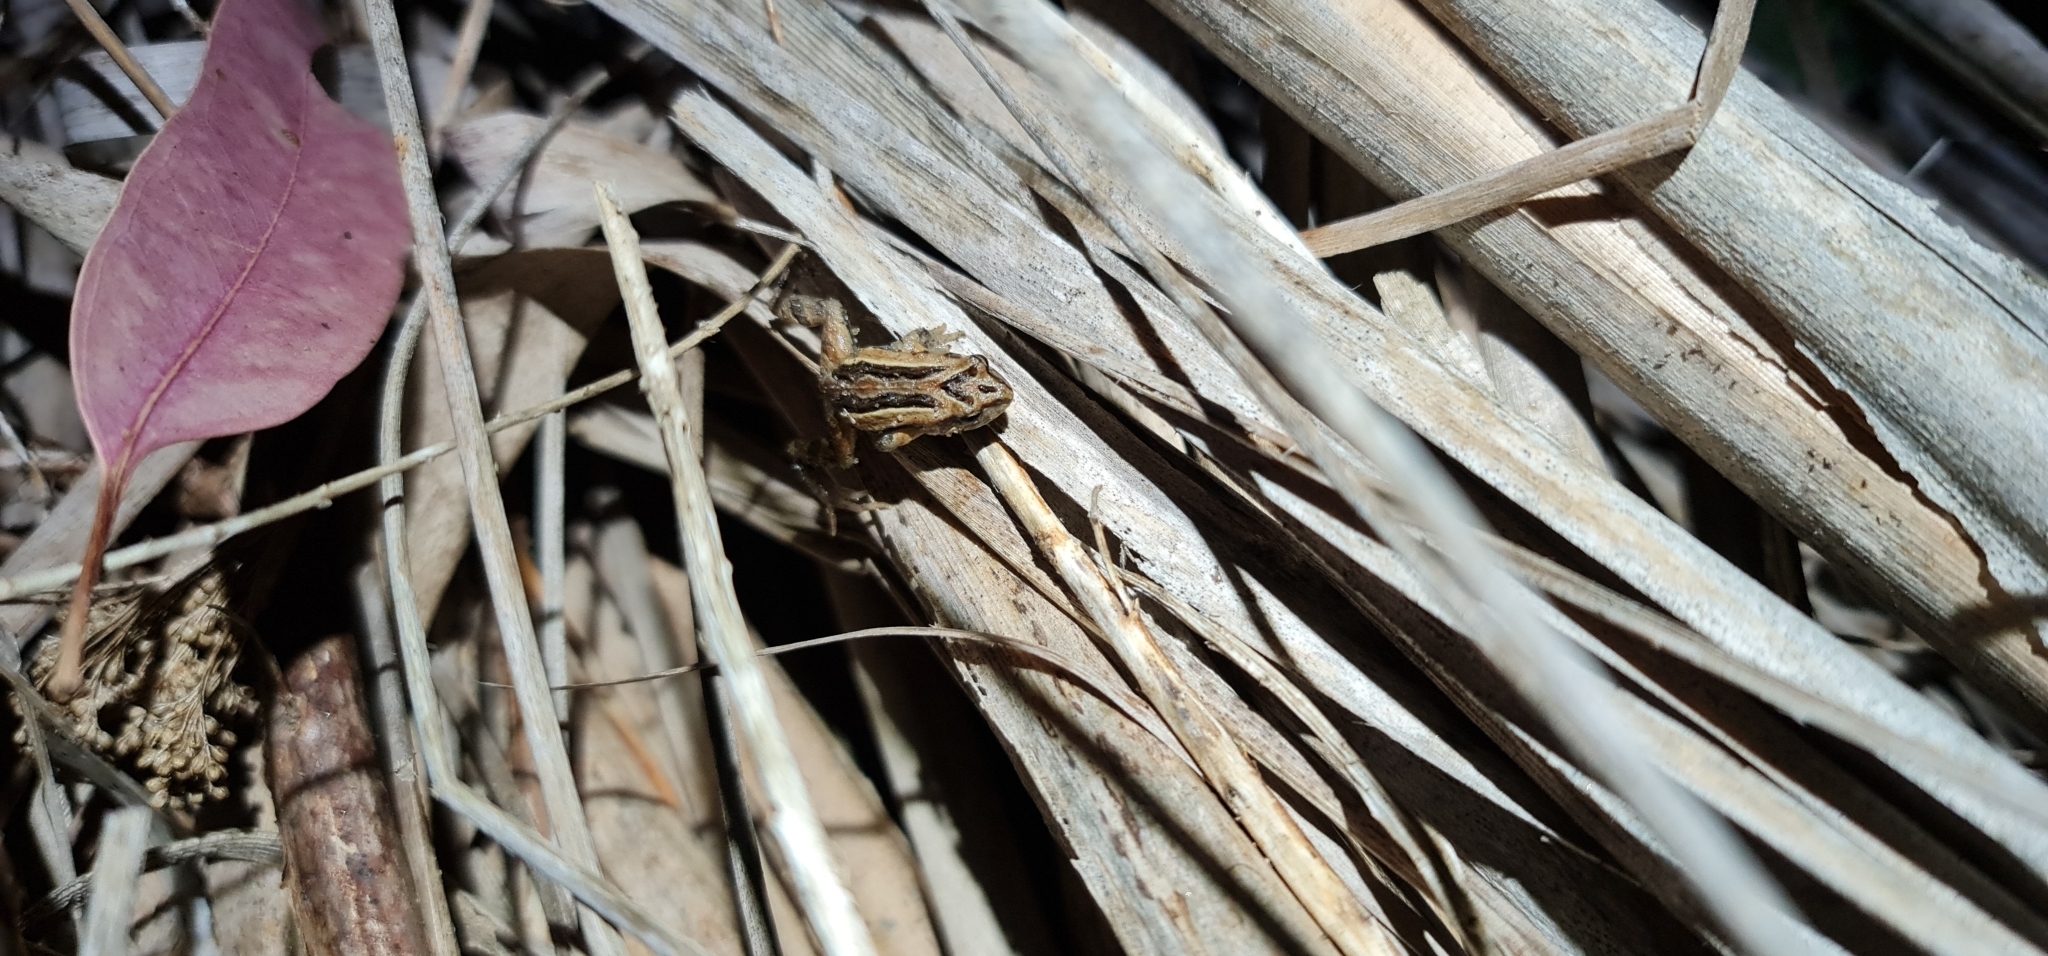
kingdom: Animalia
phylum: Chordata
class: Amphibia
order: Anura
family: Myobatrachidae
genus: Crinia
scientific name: Crinia signifera
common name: Brown froglet
